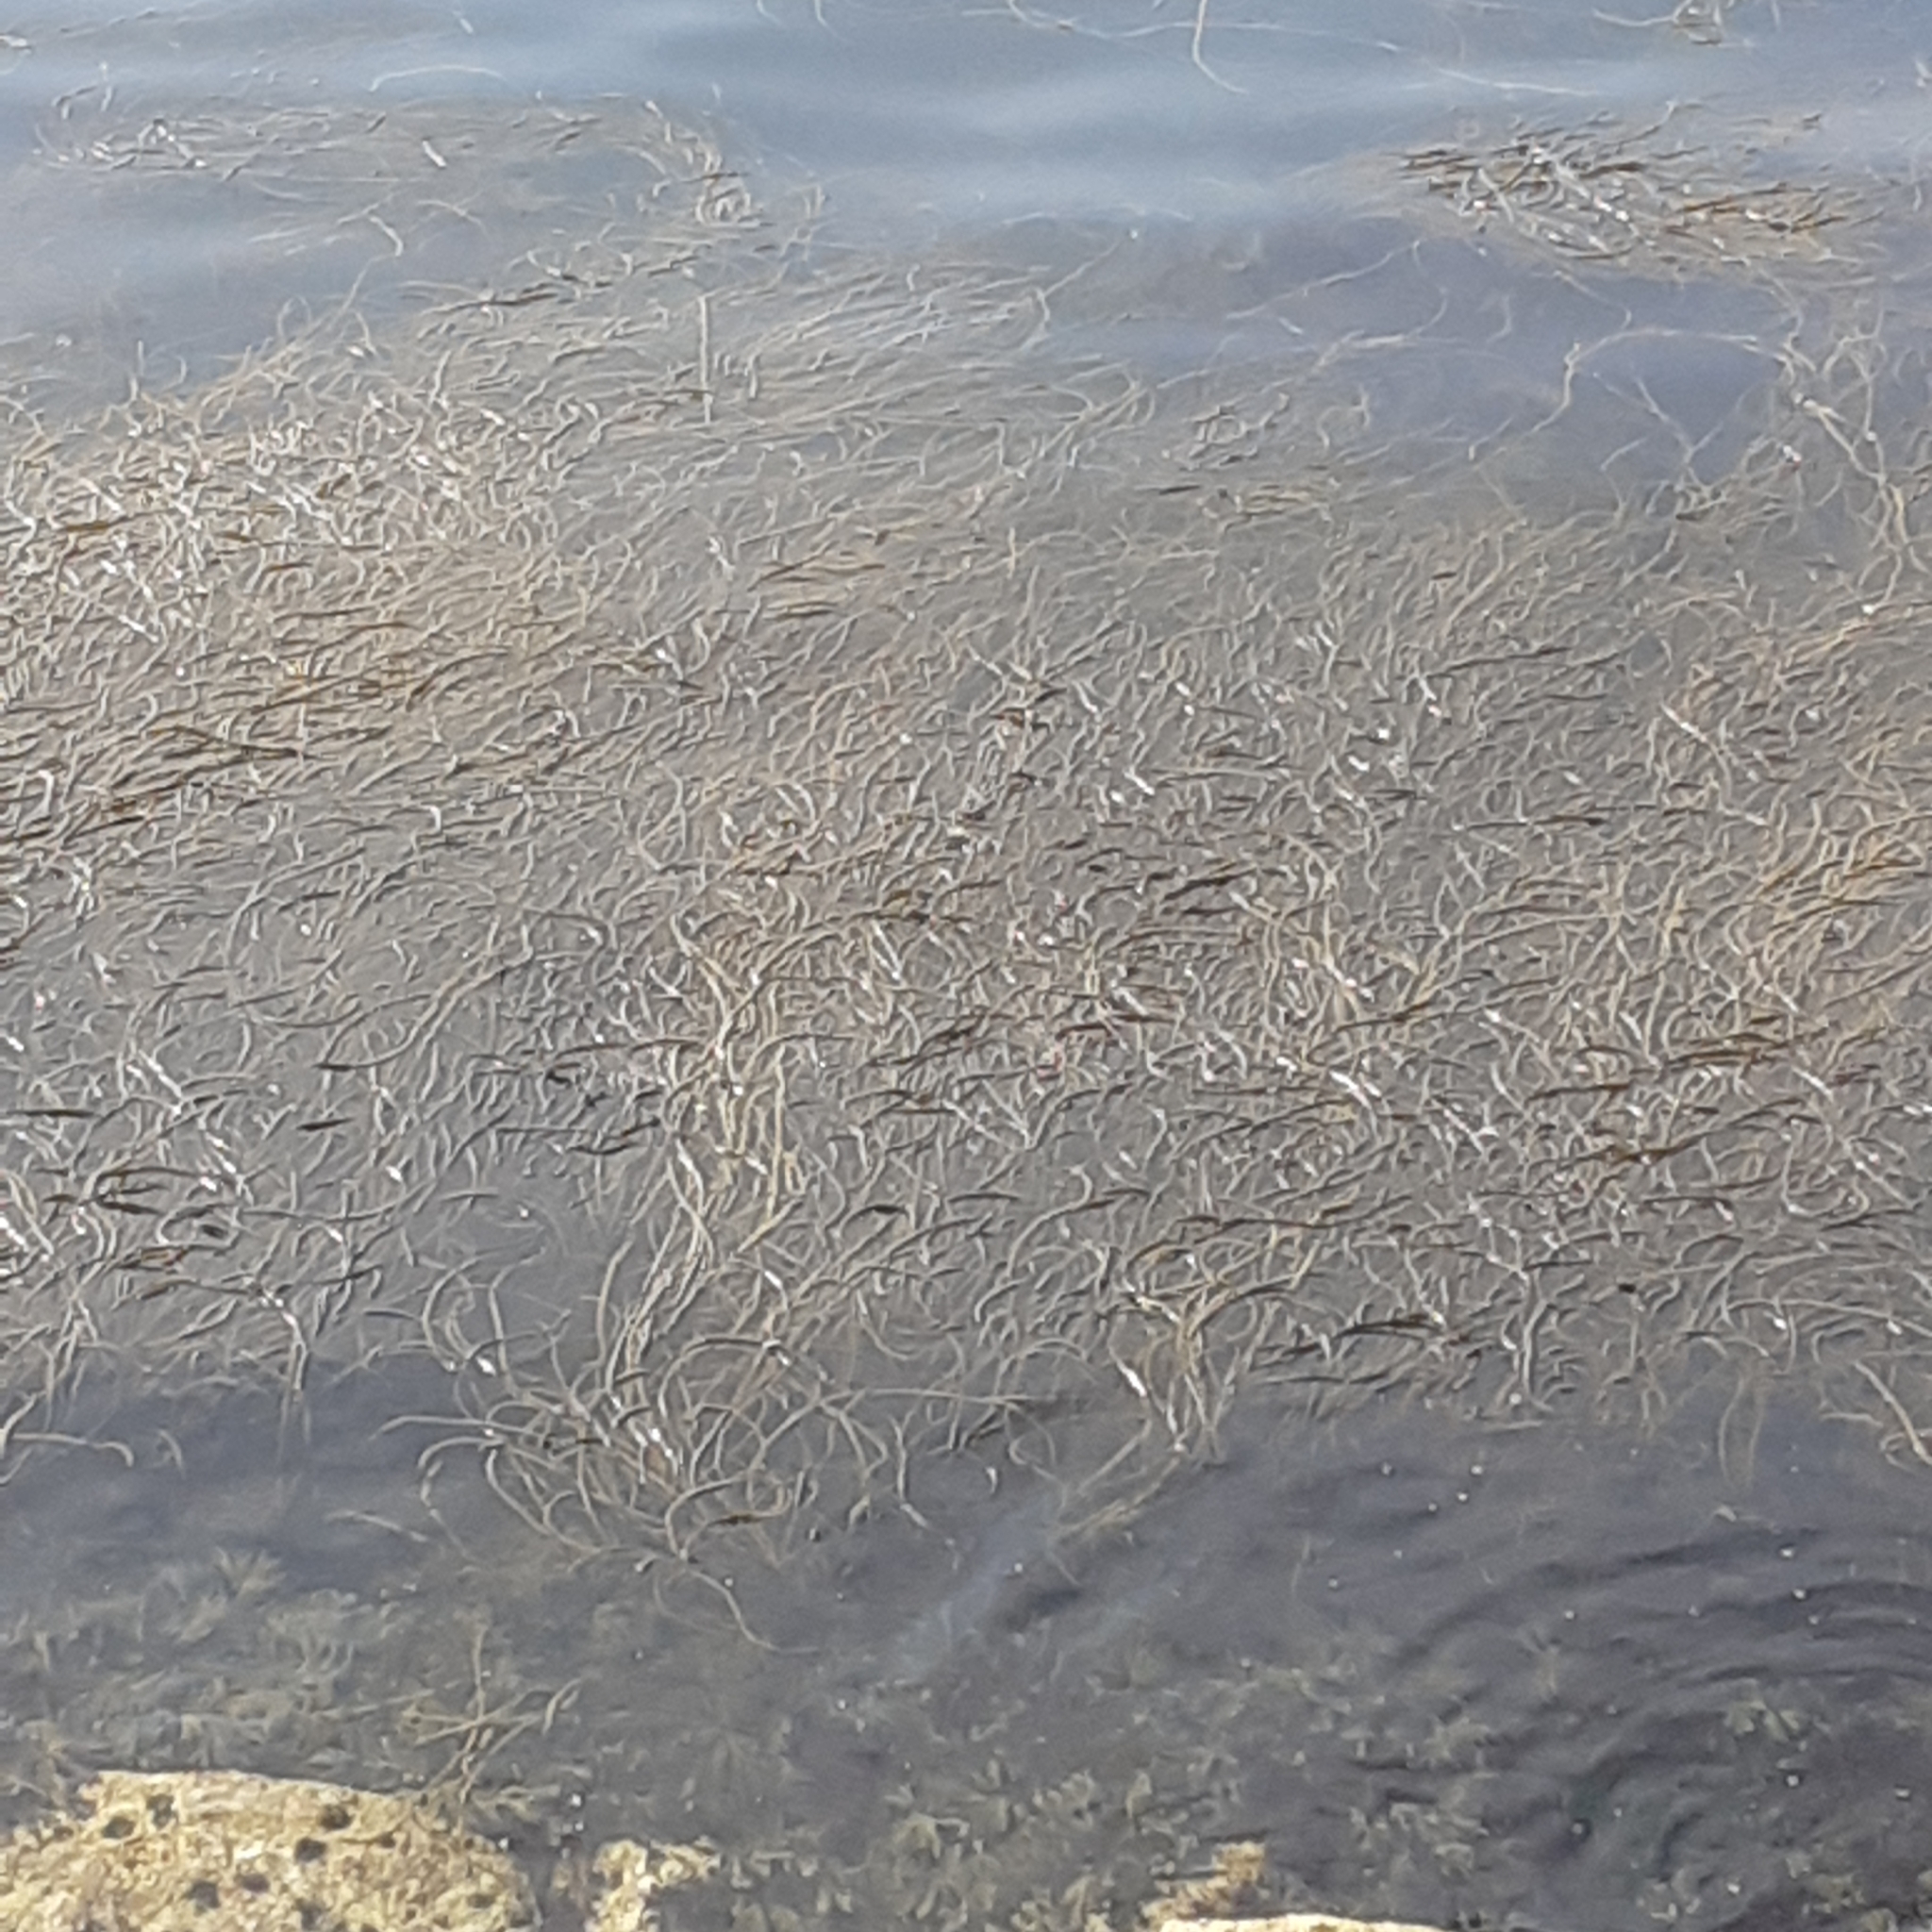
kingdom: Chromista
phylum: Ochrophyta
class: Phaeophyceae
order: Fucales
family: Himanthaliaceae
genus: Himanthalia
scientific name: Himanthalia elongata
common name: Sea-thong
